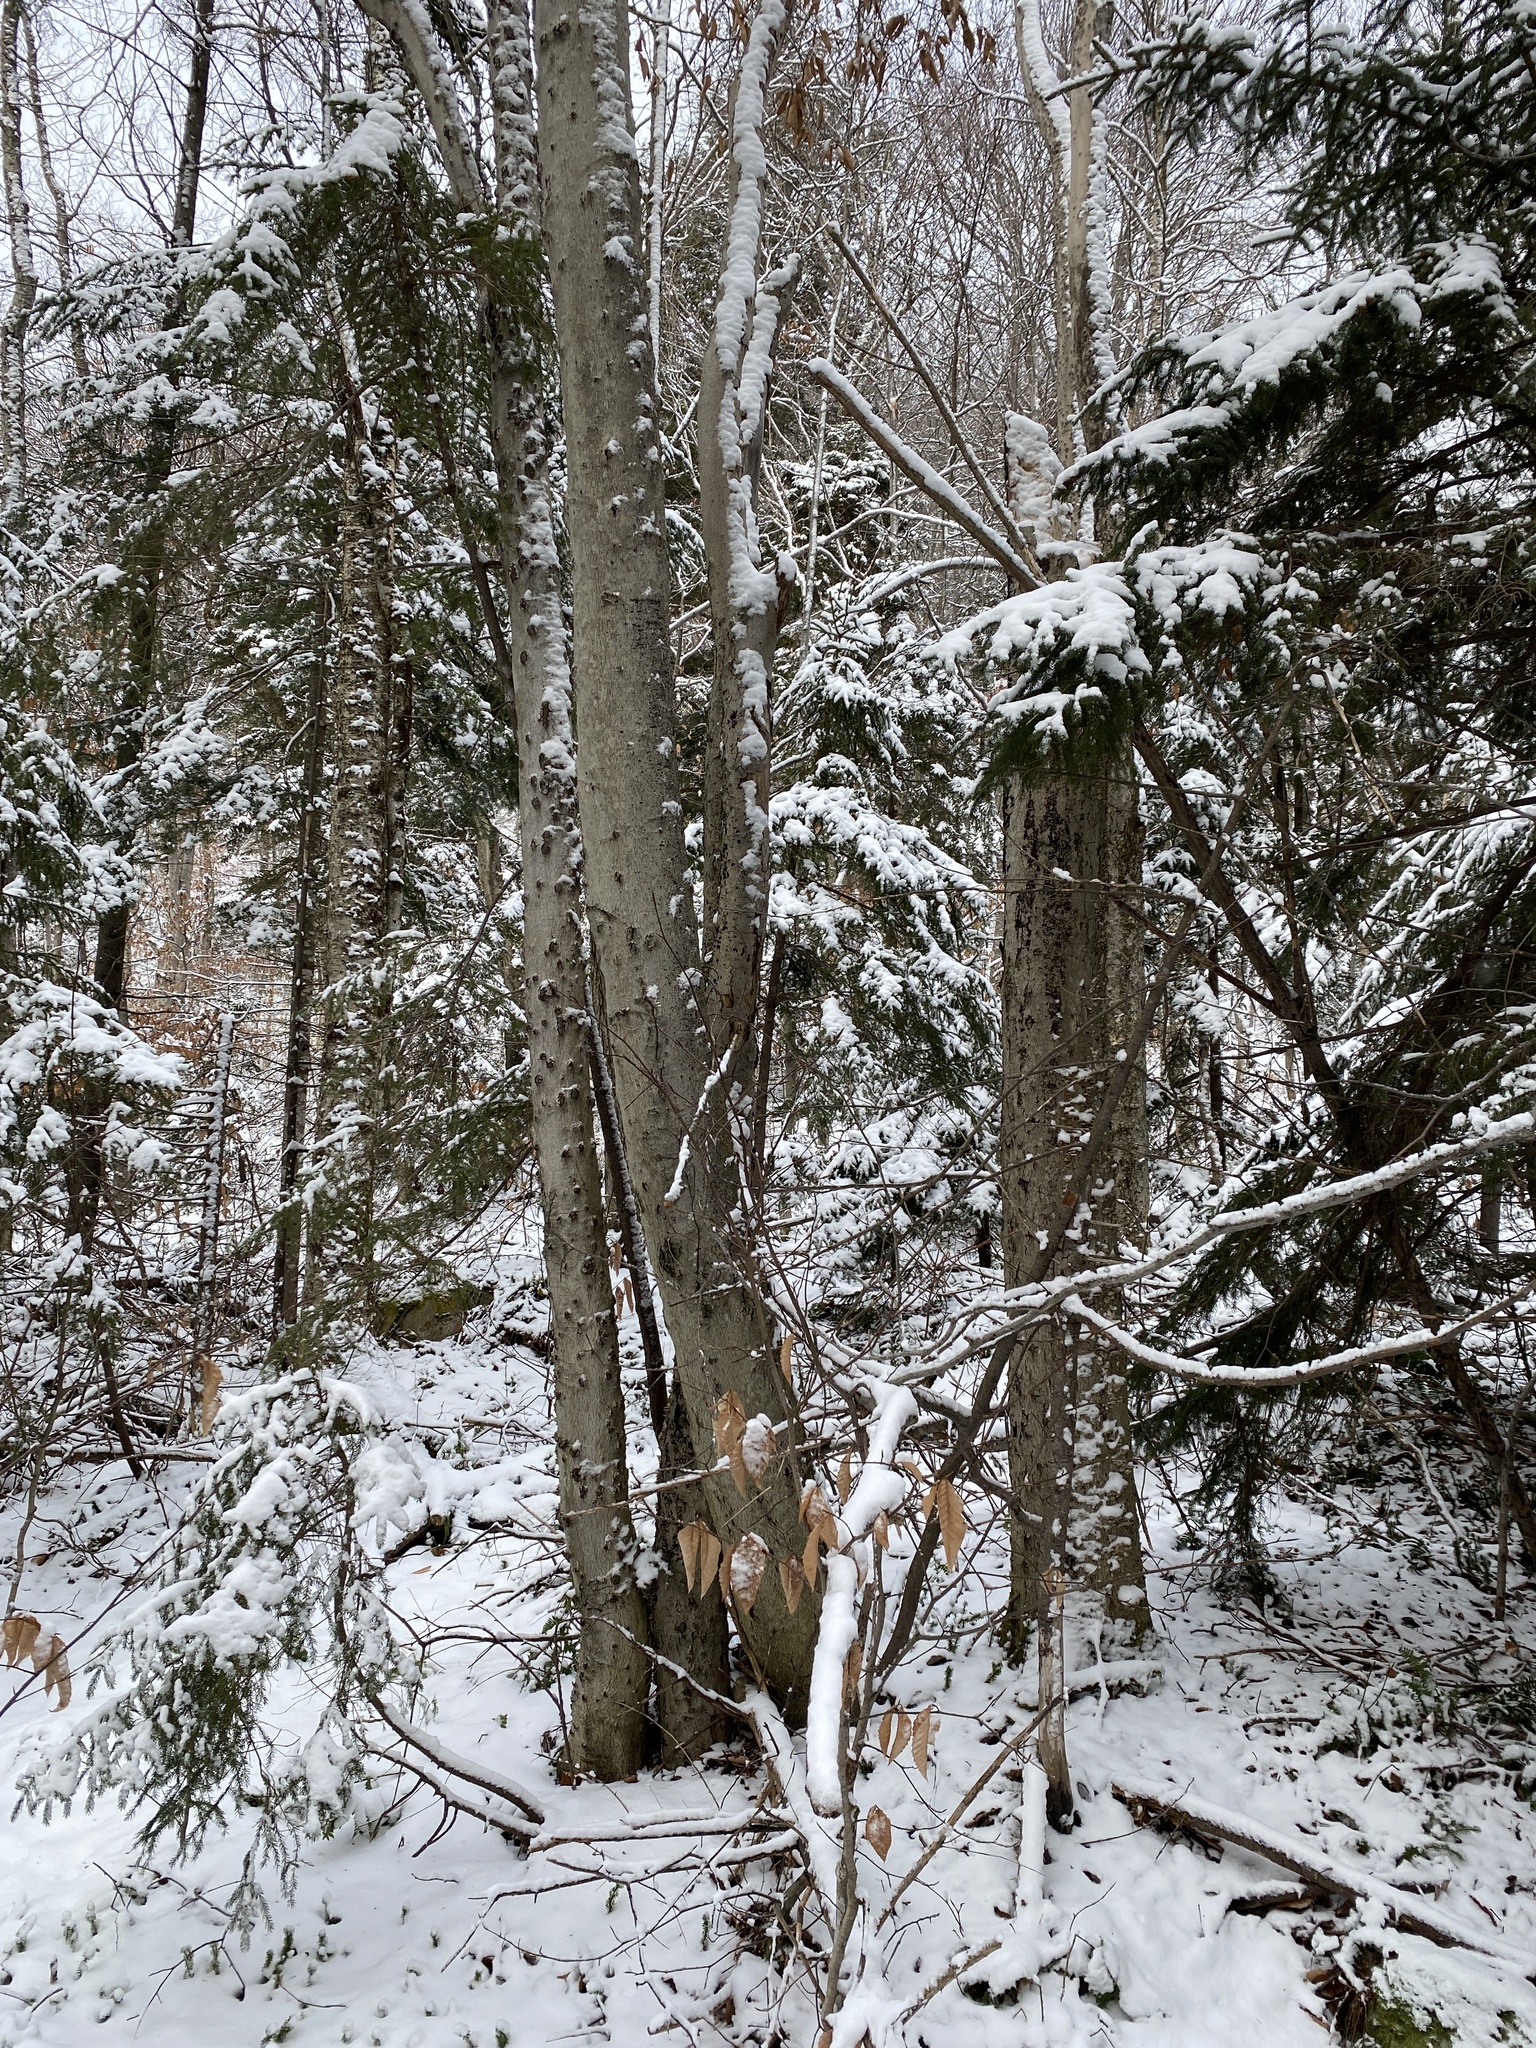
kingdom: Plantae
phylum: Tracheophyta
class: Magnoliopsida
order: Fagales
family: Fagaceae
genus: Fagus
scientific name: Fagus grandifolia
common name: American beech
